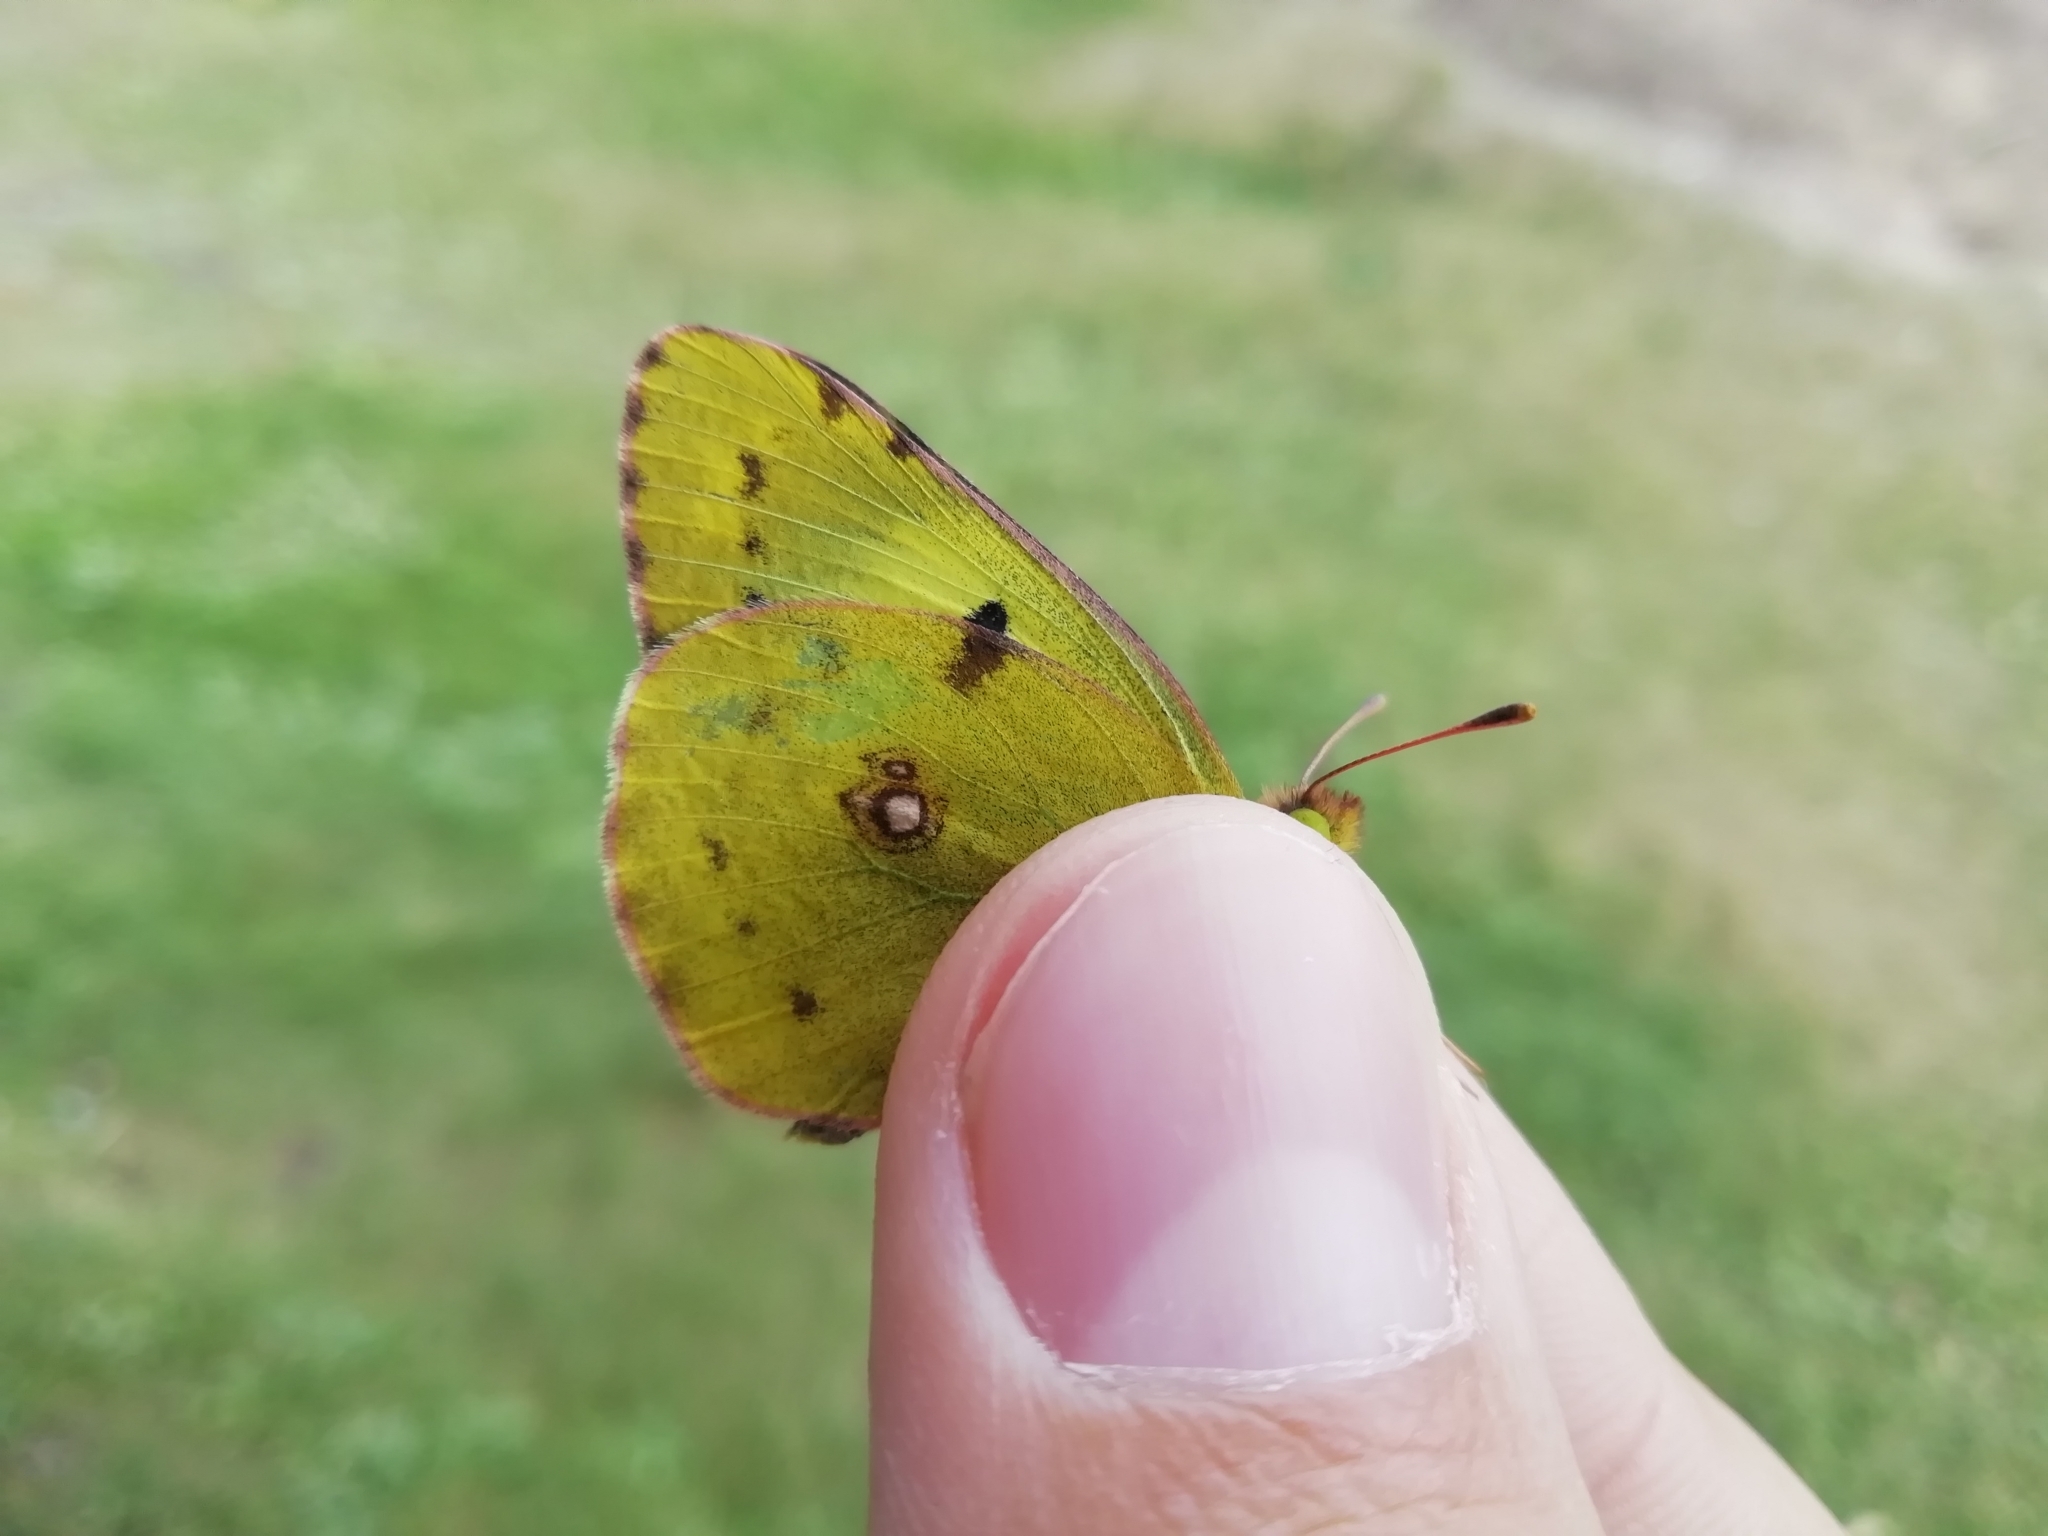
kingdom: Animalia
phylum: Arthropoda
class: Insecta
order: Lepidoptera
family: Pieridae
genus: Colias
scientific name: Colias hyale
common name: Pale clouded yellow
